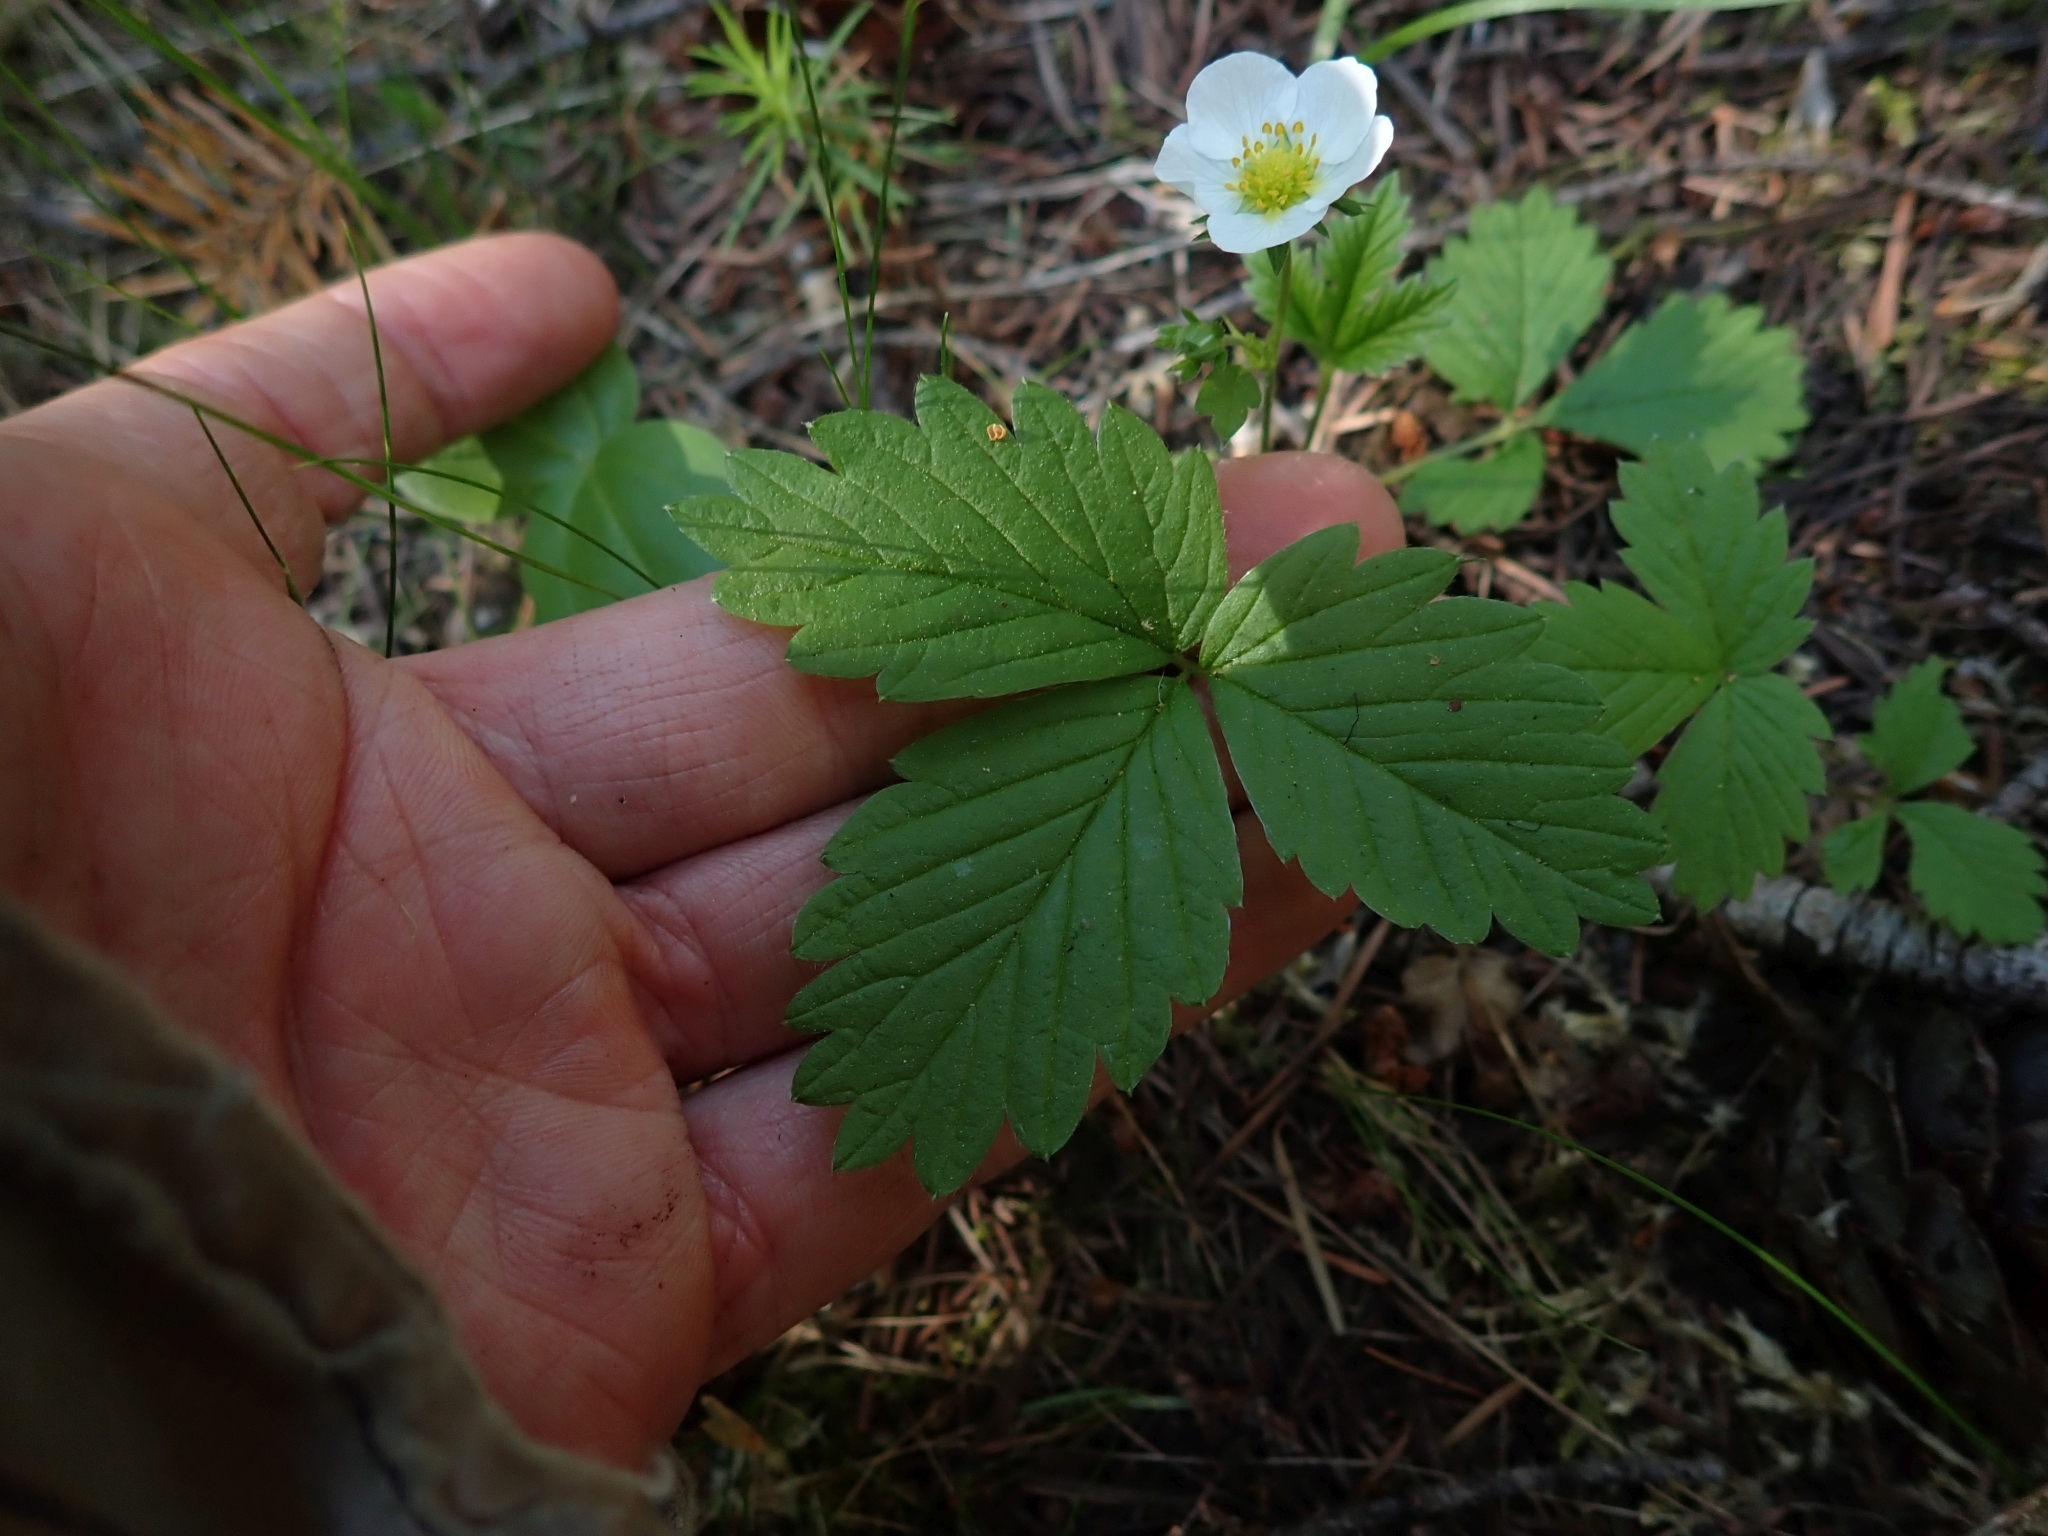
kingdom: Plantae
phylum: Tracheophyta
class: Magnoliopsida
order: Rosales
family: Rosaceae
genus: Fragaria
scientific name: Fragaria vesca
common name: Wild strawberry
